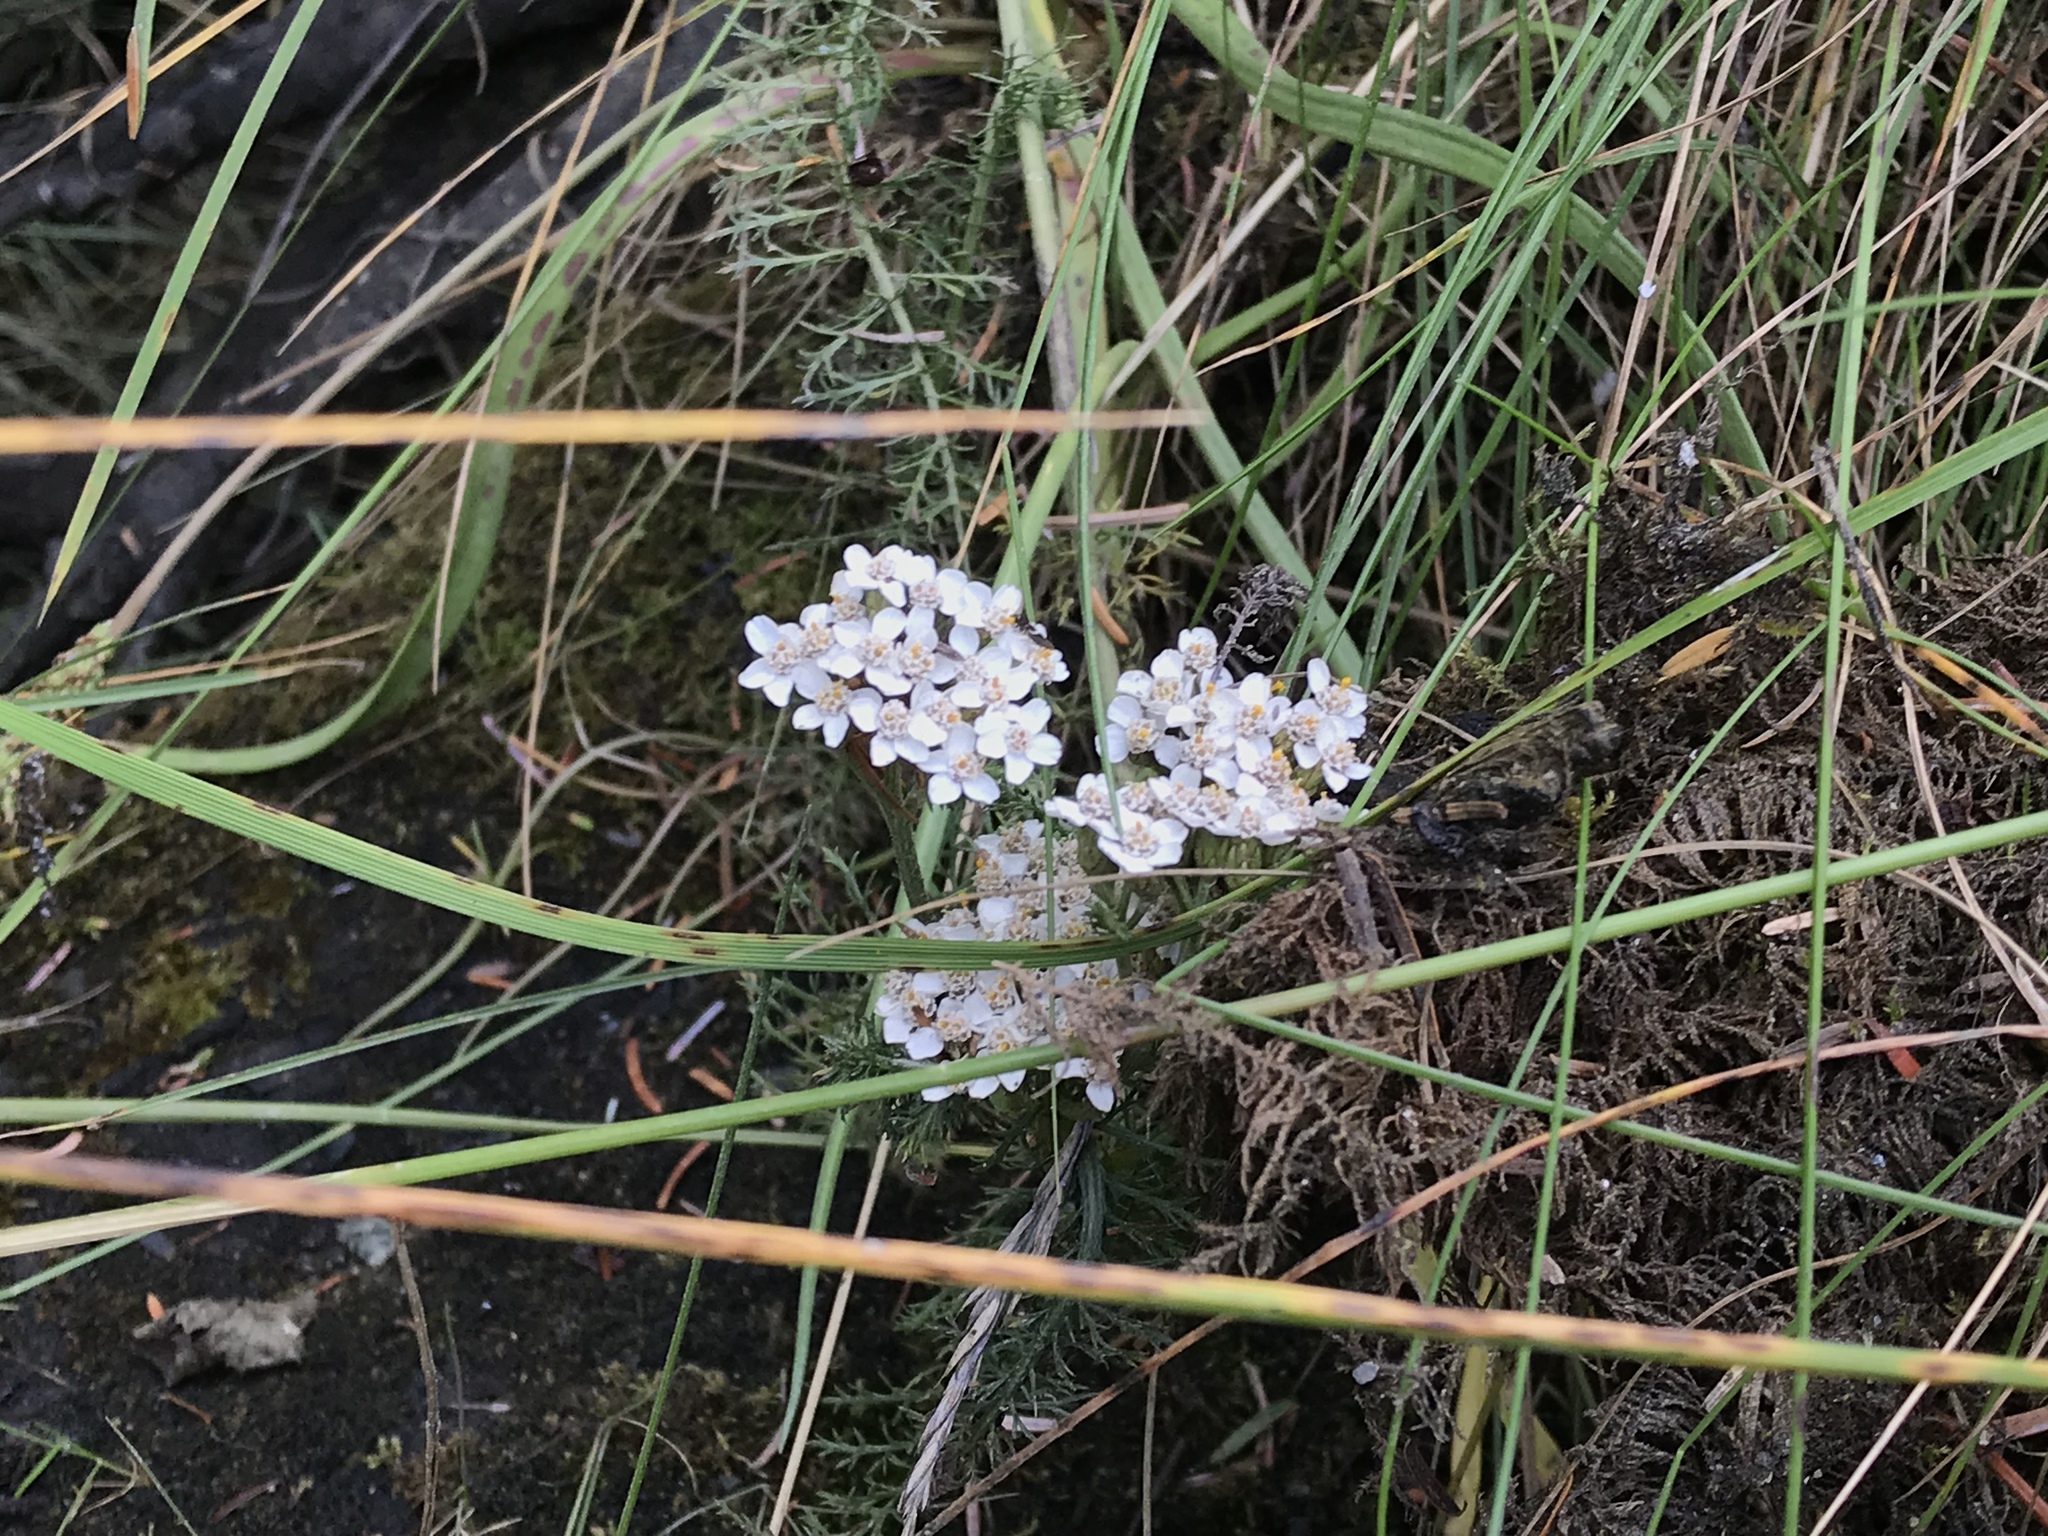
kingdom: Plantae
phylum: Tracheophyta
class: Magnoliopsida
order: Asterales
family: Asteraceae
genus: Achillea
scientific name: Achillea millefolium
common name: Yarrow
